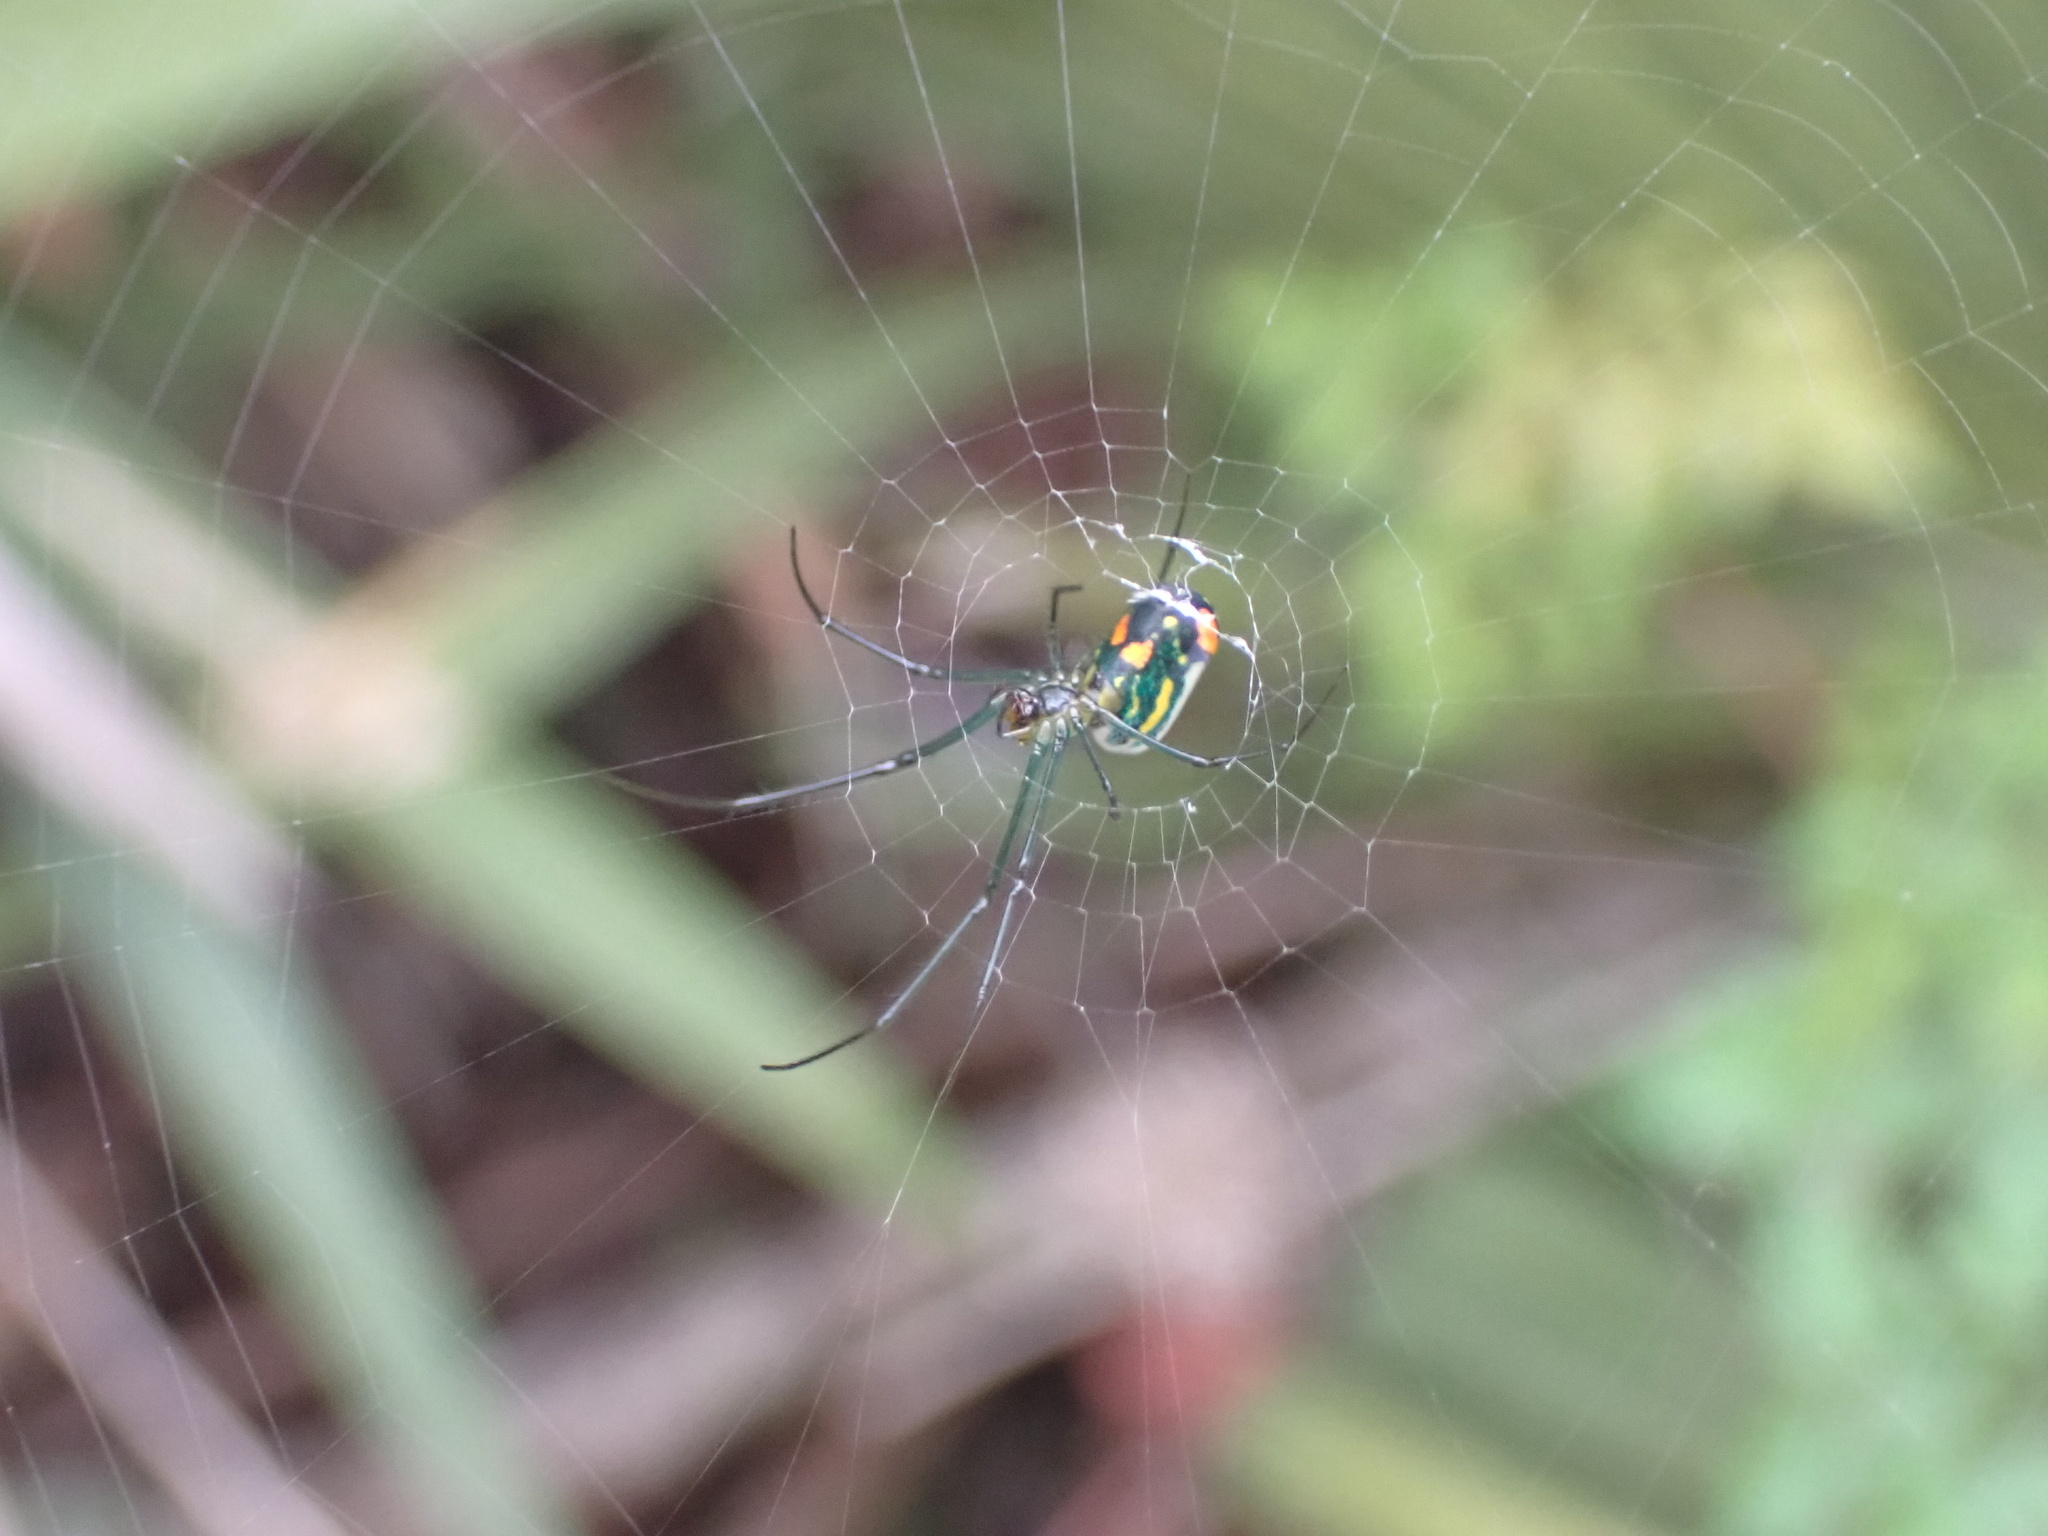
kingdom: Animalia
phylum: Arthropoda
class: Arachnida
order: Araneae
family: Tetragnathidae
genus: Leucauge
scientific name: Leucauge argyrobapta
